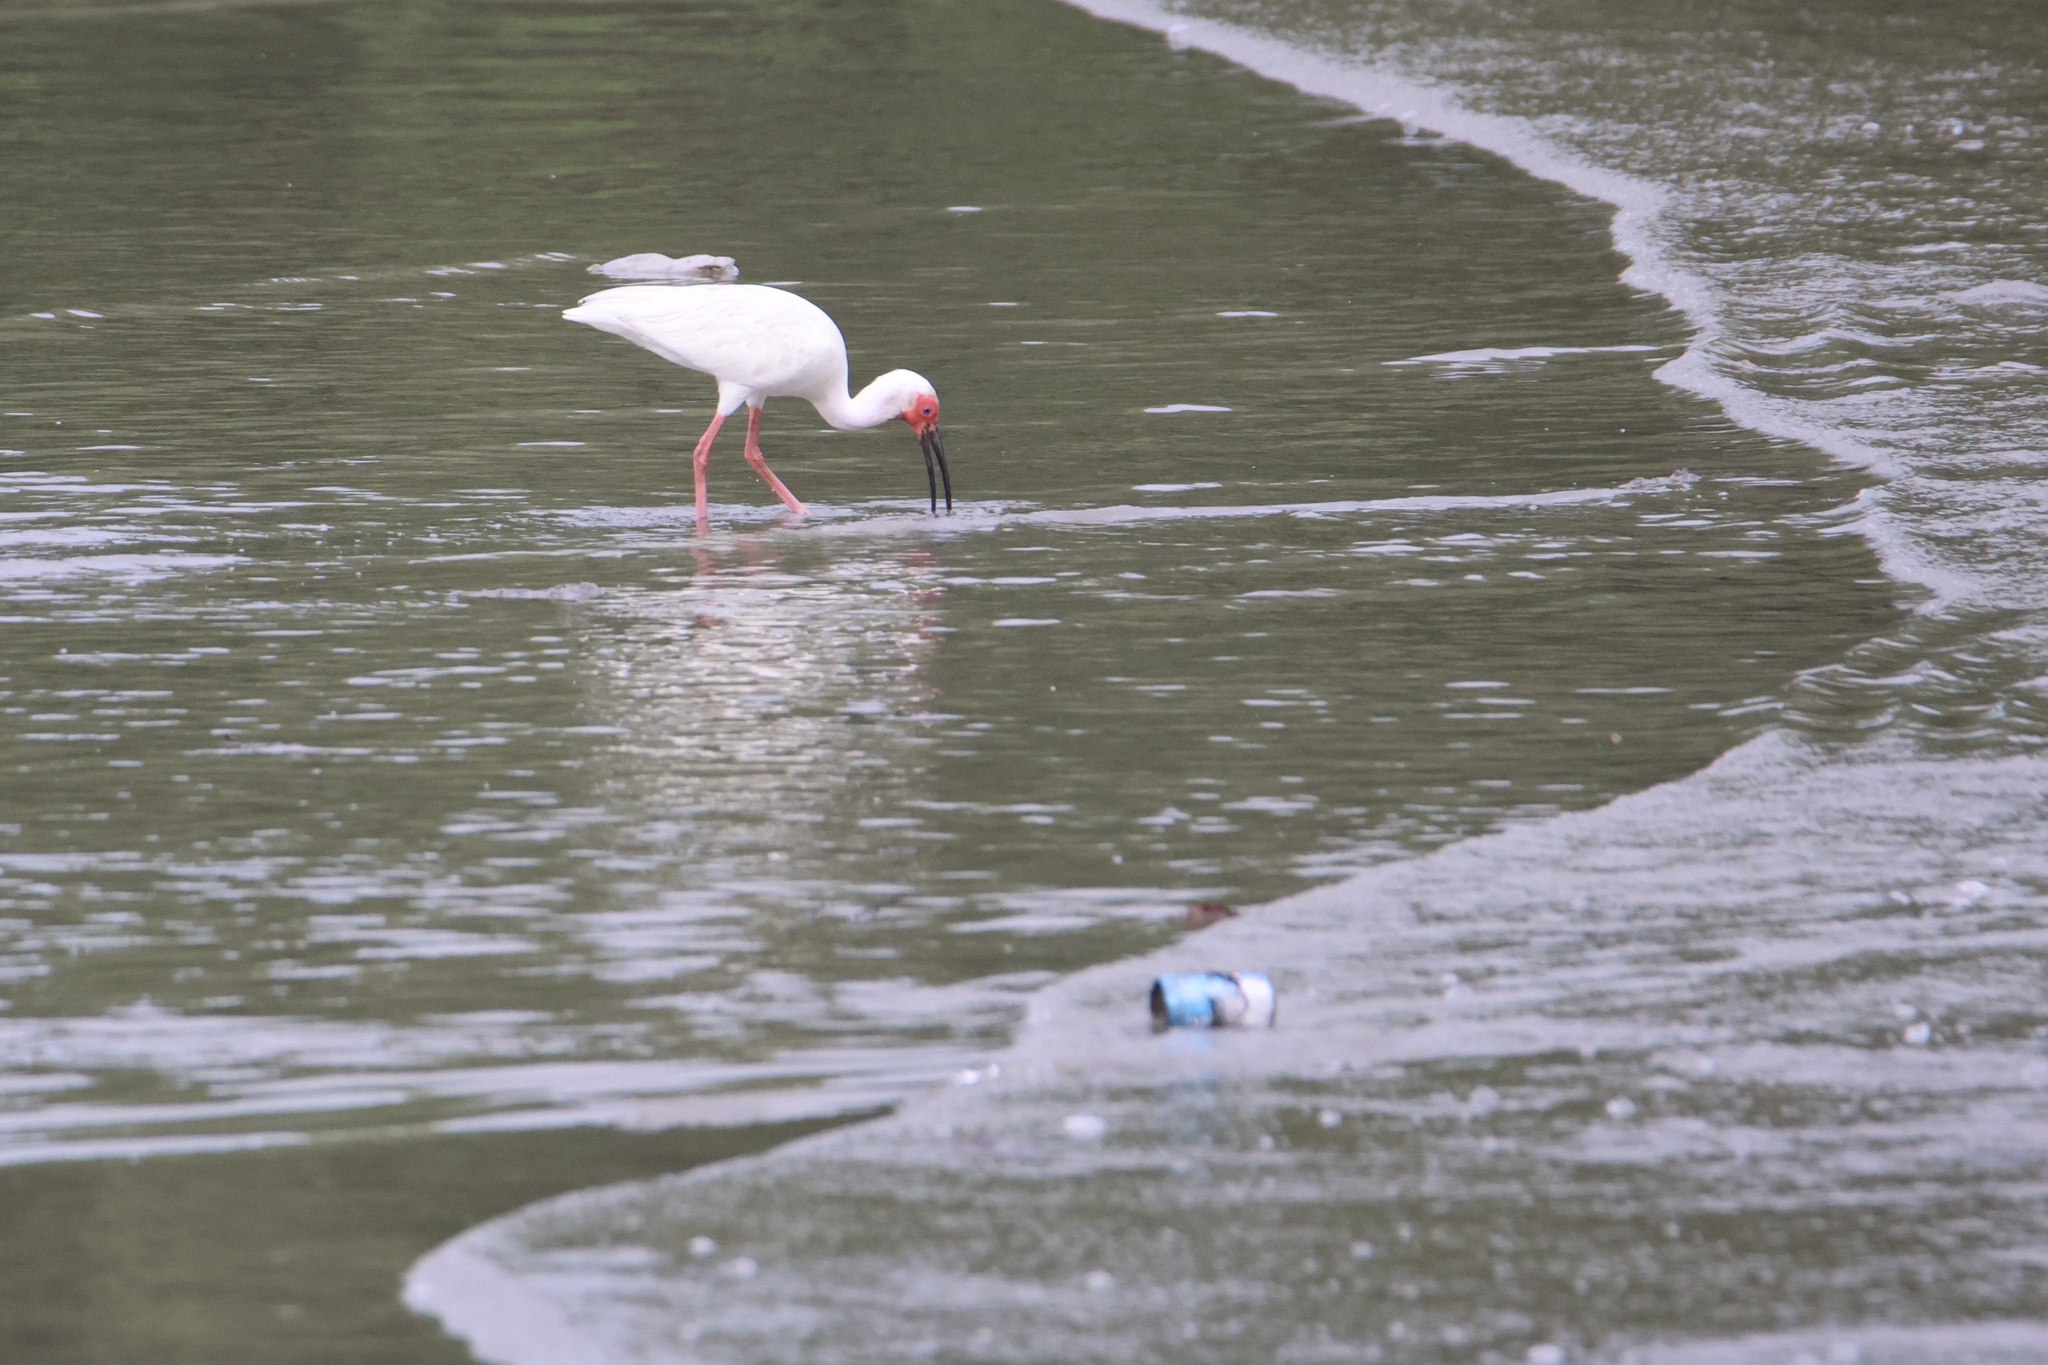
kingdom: Animalia
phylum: Chordata
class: Aves
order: Pelecaniformes
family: Threskiornithidae
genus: Eudocimus
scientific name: Eudocimus albus
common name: White ibis
